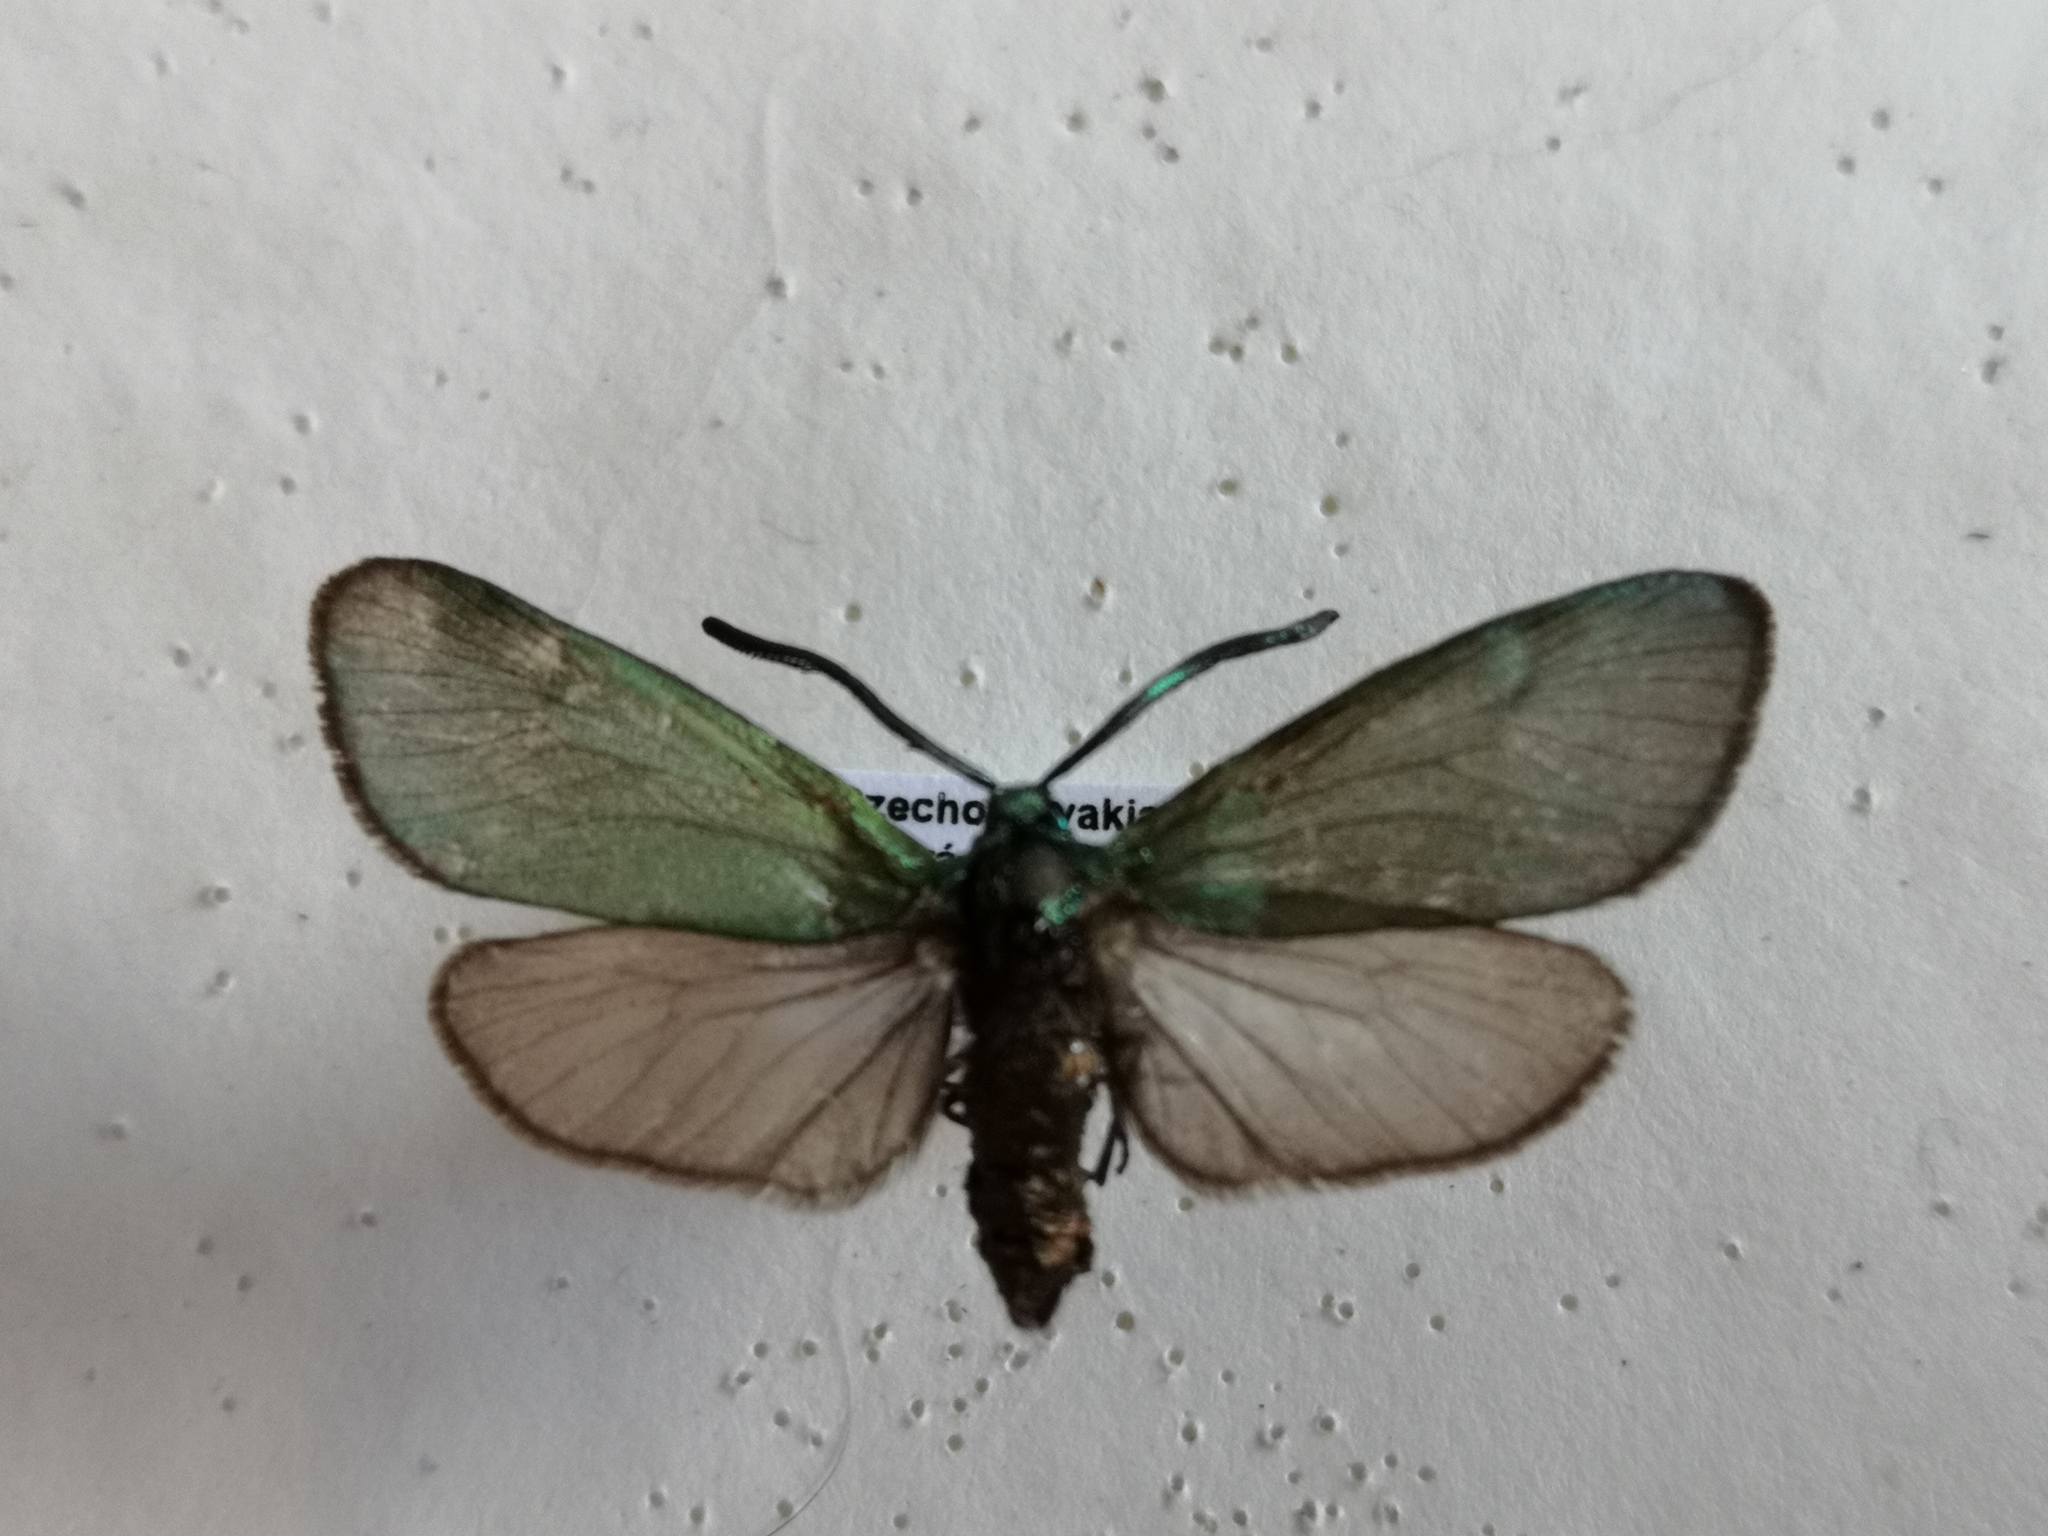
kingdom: Animalia
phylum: Arthropoda
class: Insecta
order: Lepidoptera
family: Zygaenidae
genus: Adscita
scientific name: Adscita statices
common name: Forester
